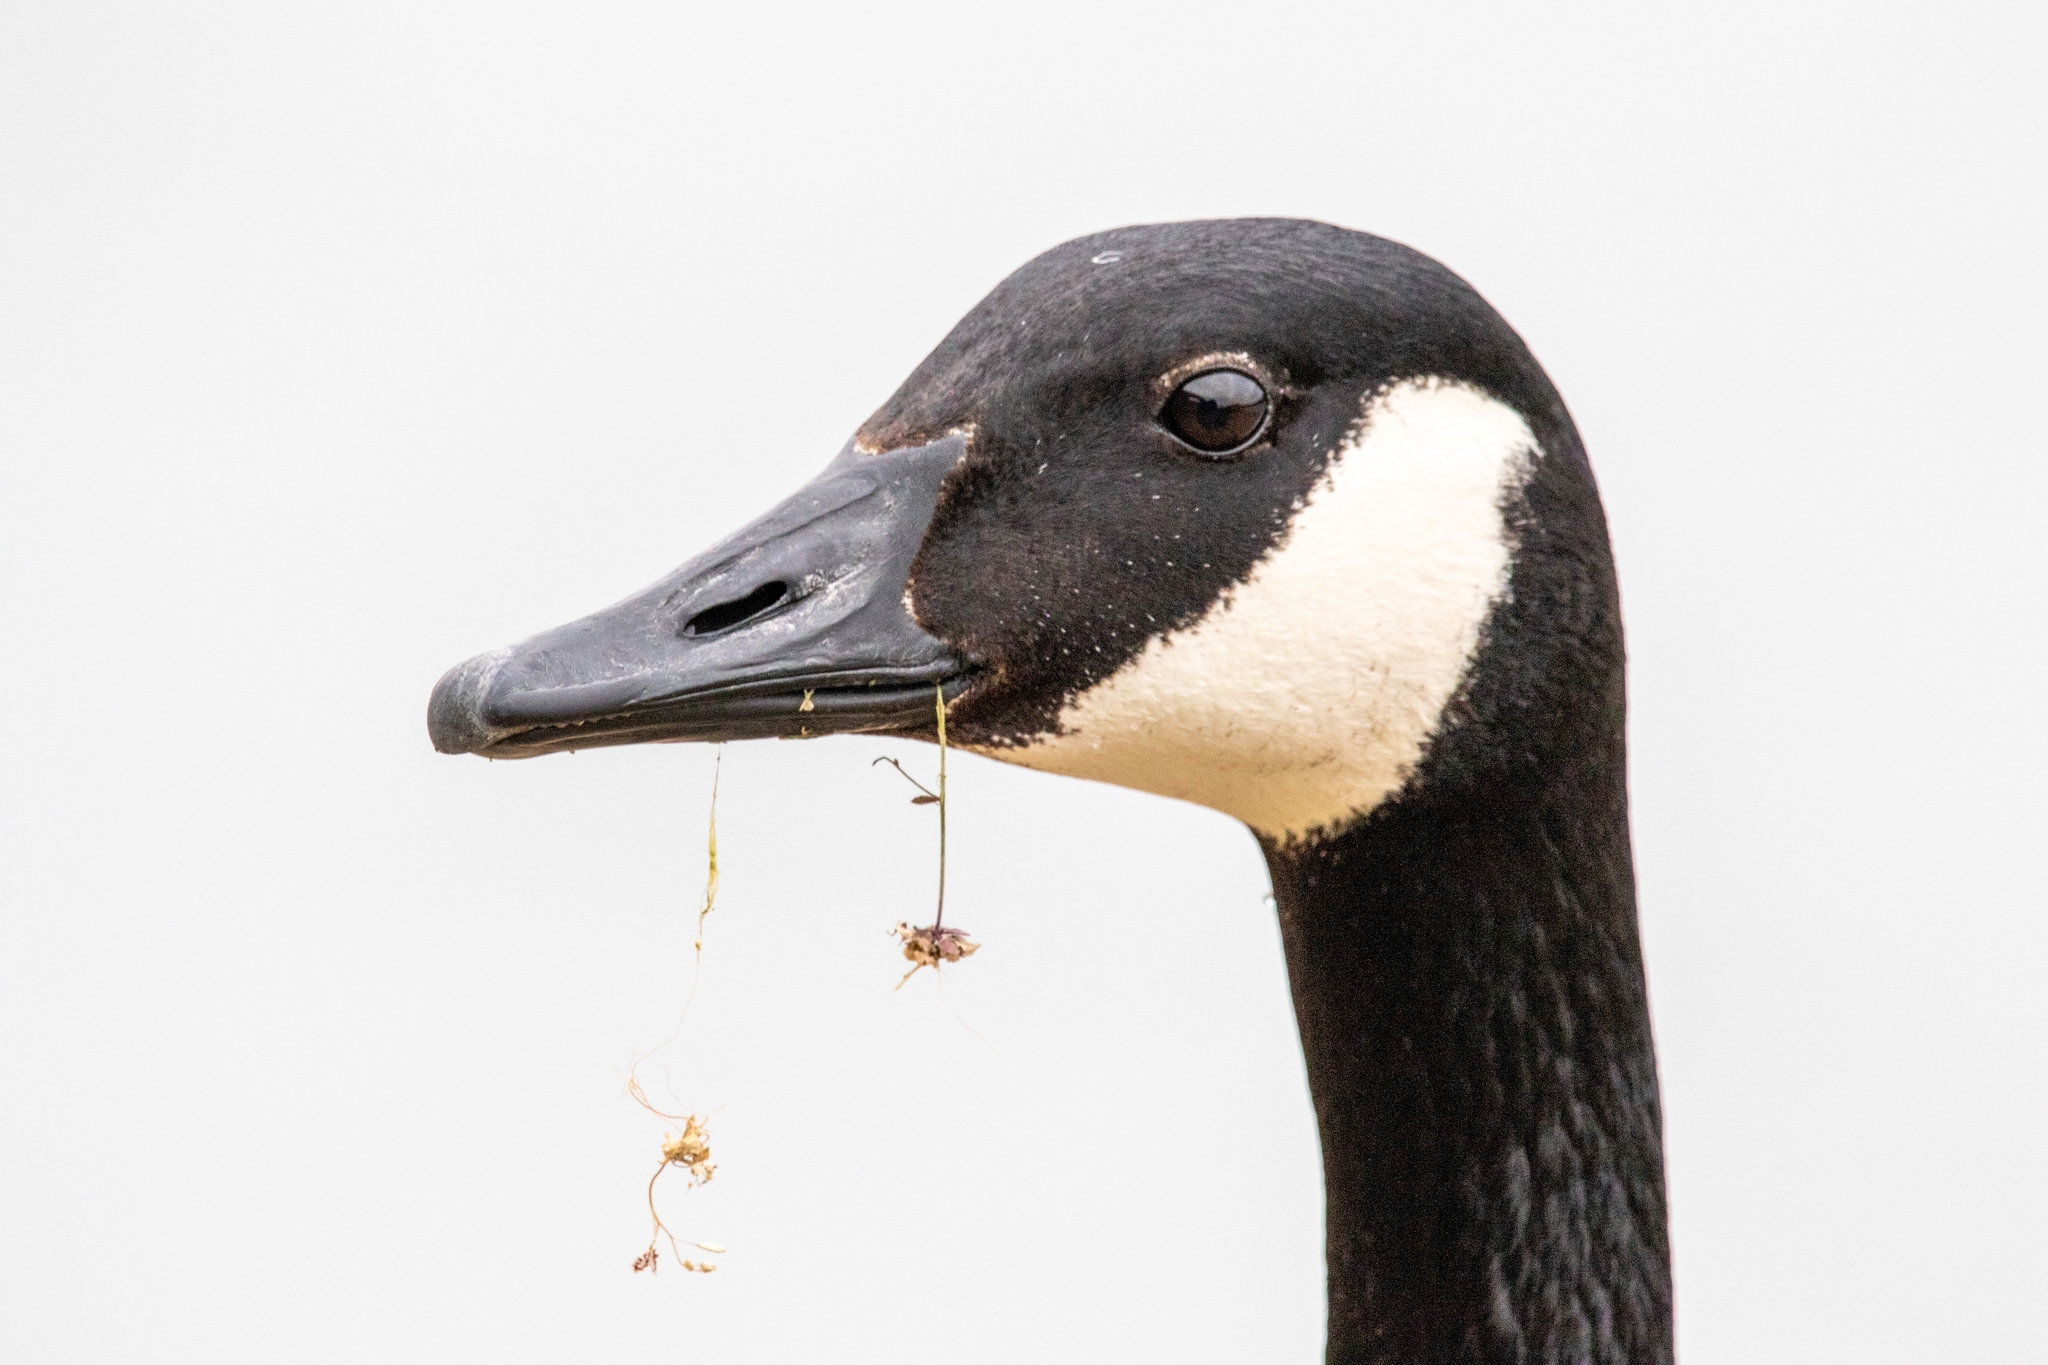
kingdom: Animalia
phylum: Chordata
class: Aves
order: Anseriformes
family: Anatidae
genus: Branta
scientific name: Branta canadensis
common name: Canada goose
